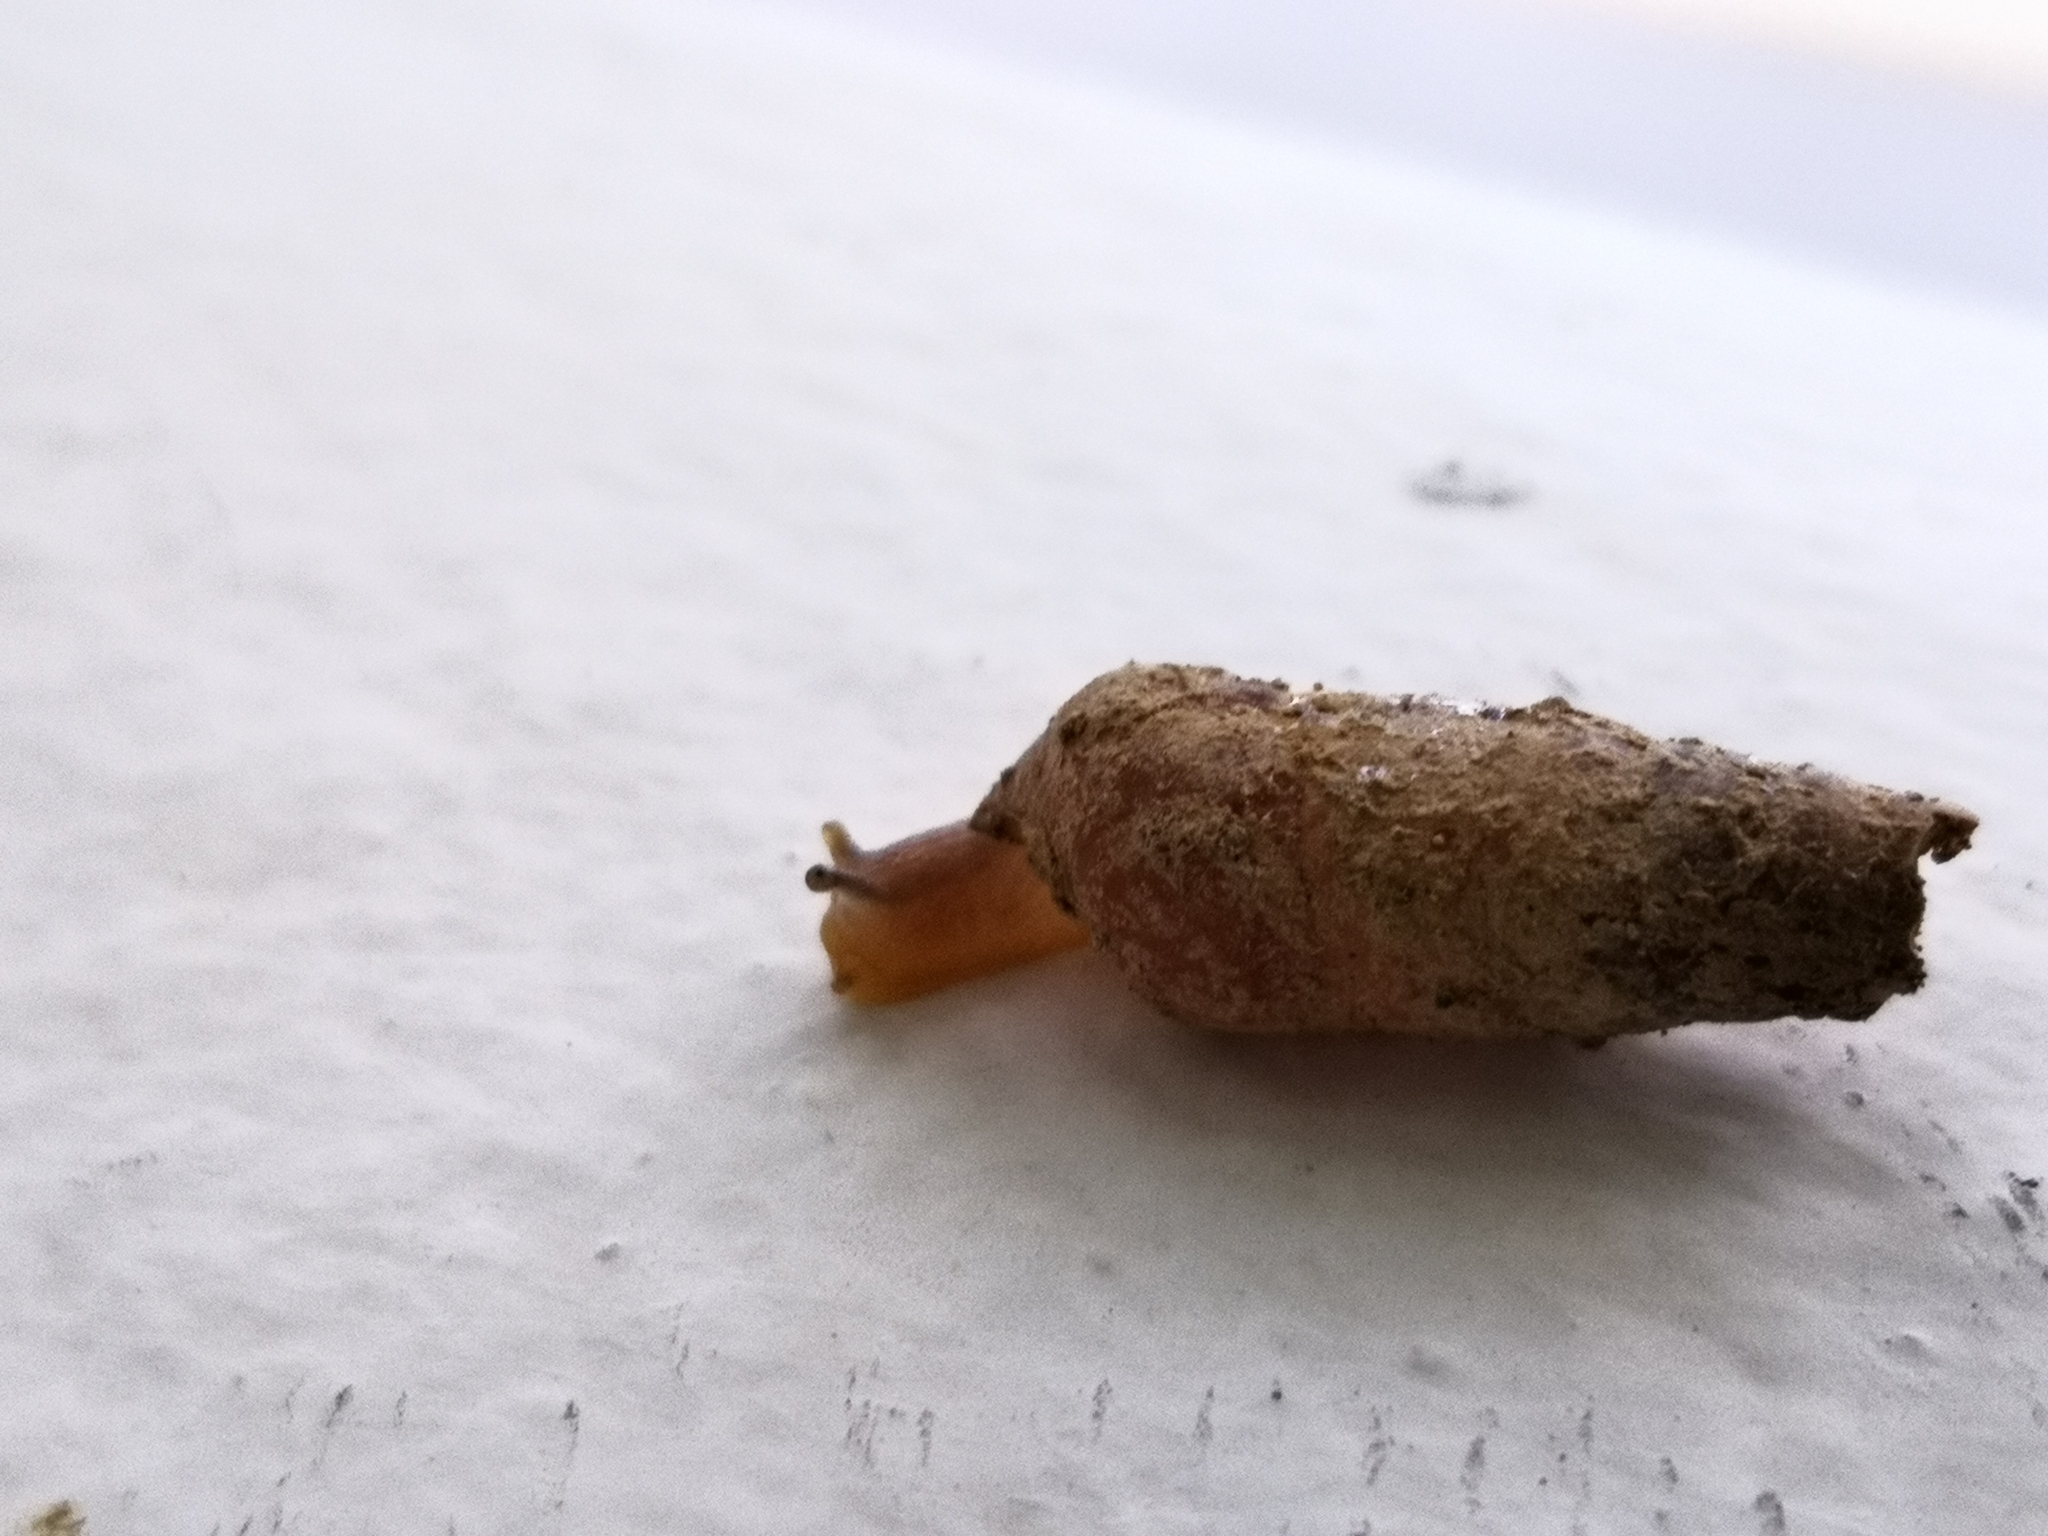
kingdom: Animalia
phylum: Mollusca
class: Gastropoda
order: Stylommatophora
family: Achatinidae
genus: Rumina
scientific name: Rumina saharica
